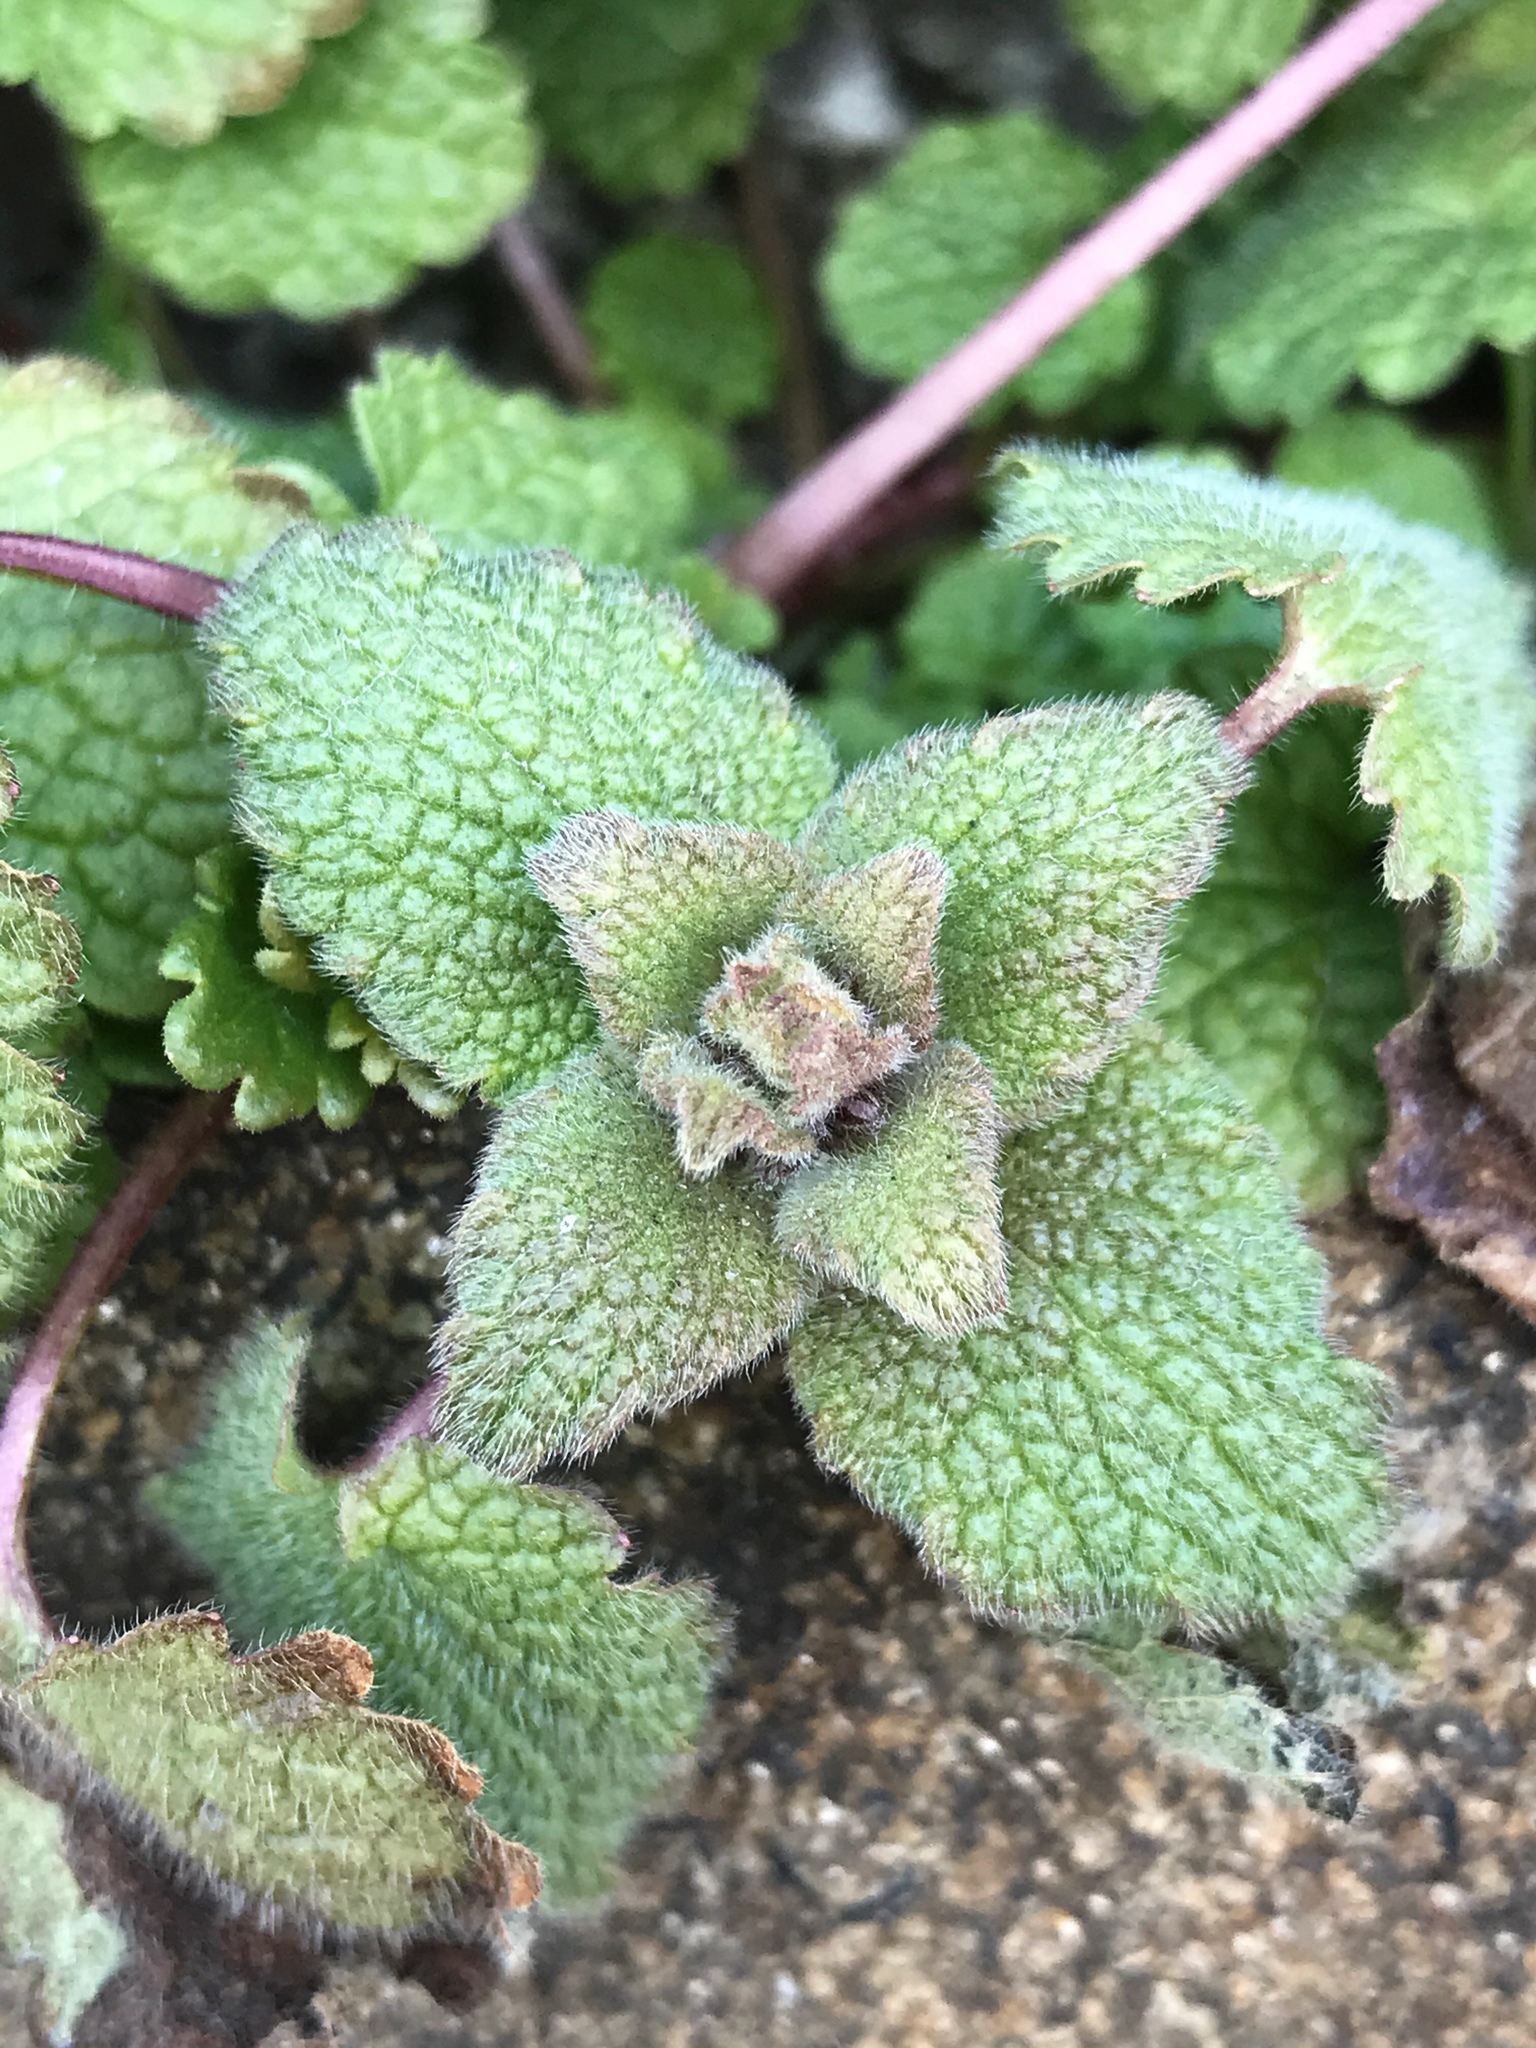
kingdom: Plantae
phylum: Tracheophyta
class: Magnoliopsida
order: Lamiales
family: Lamiaceae
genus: Lamium
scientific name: Lamium purpureum
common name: Red dead-nettle
